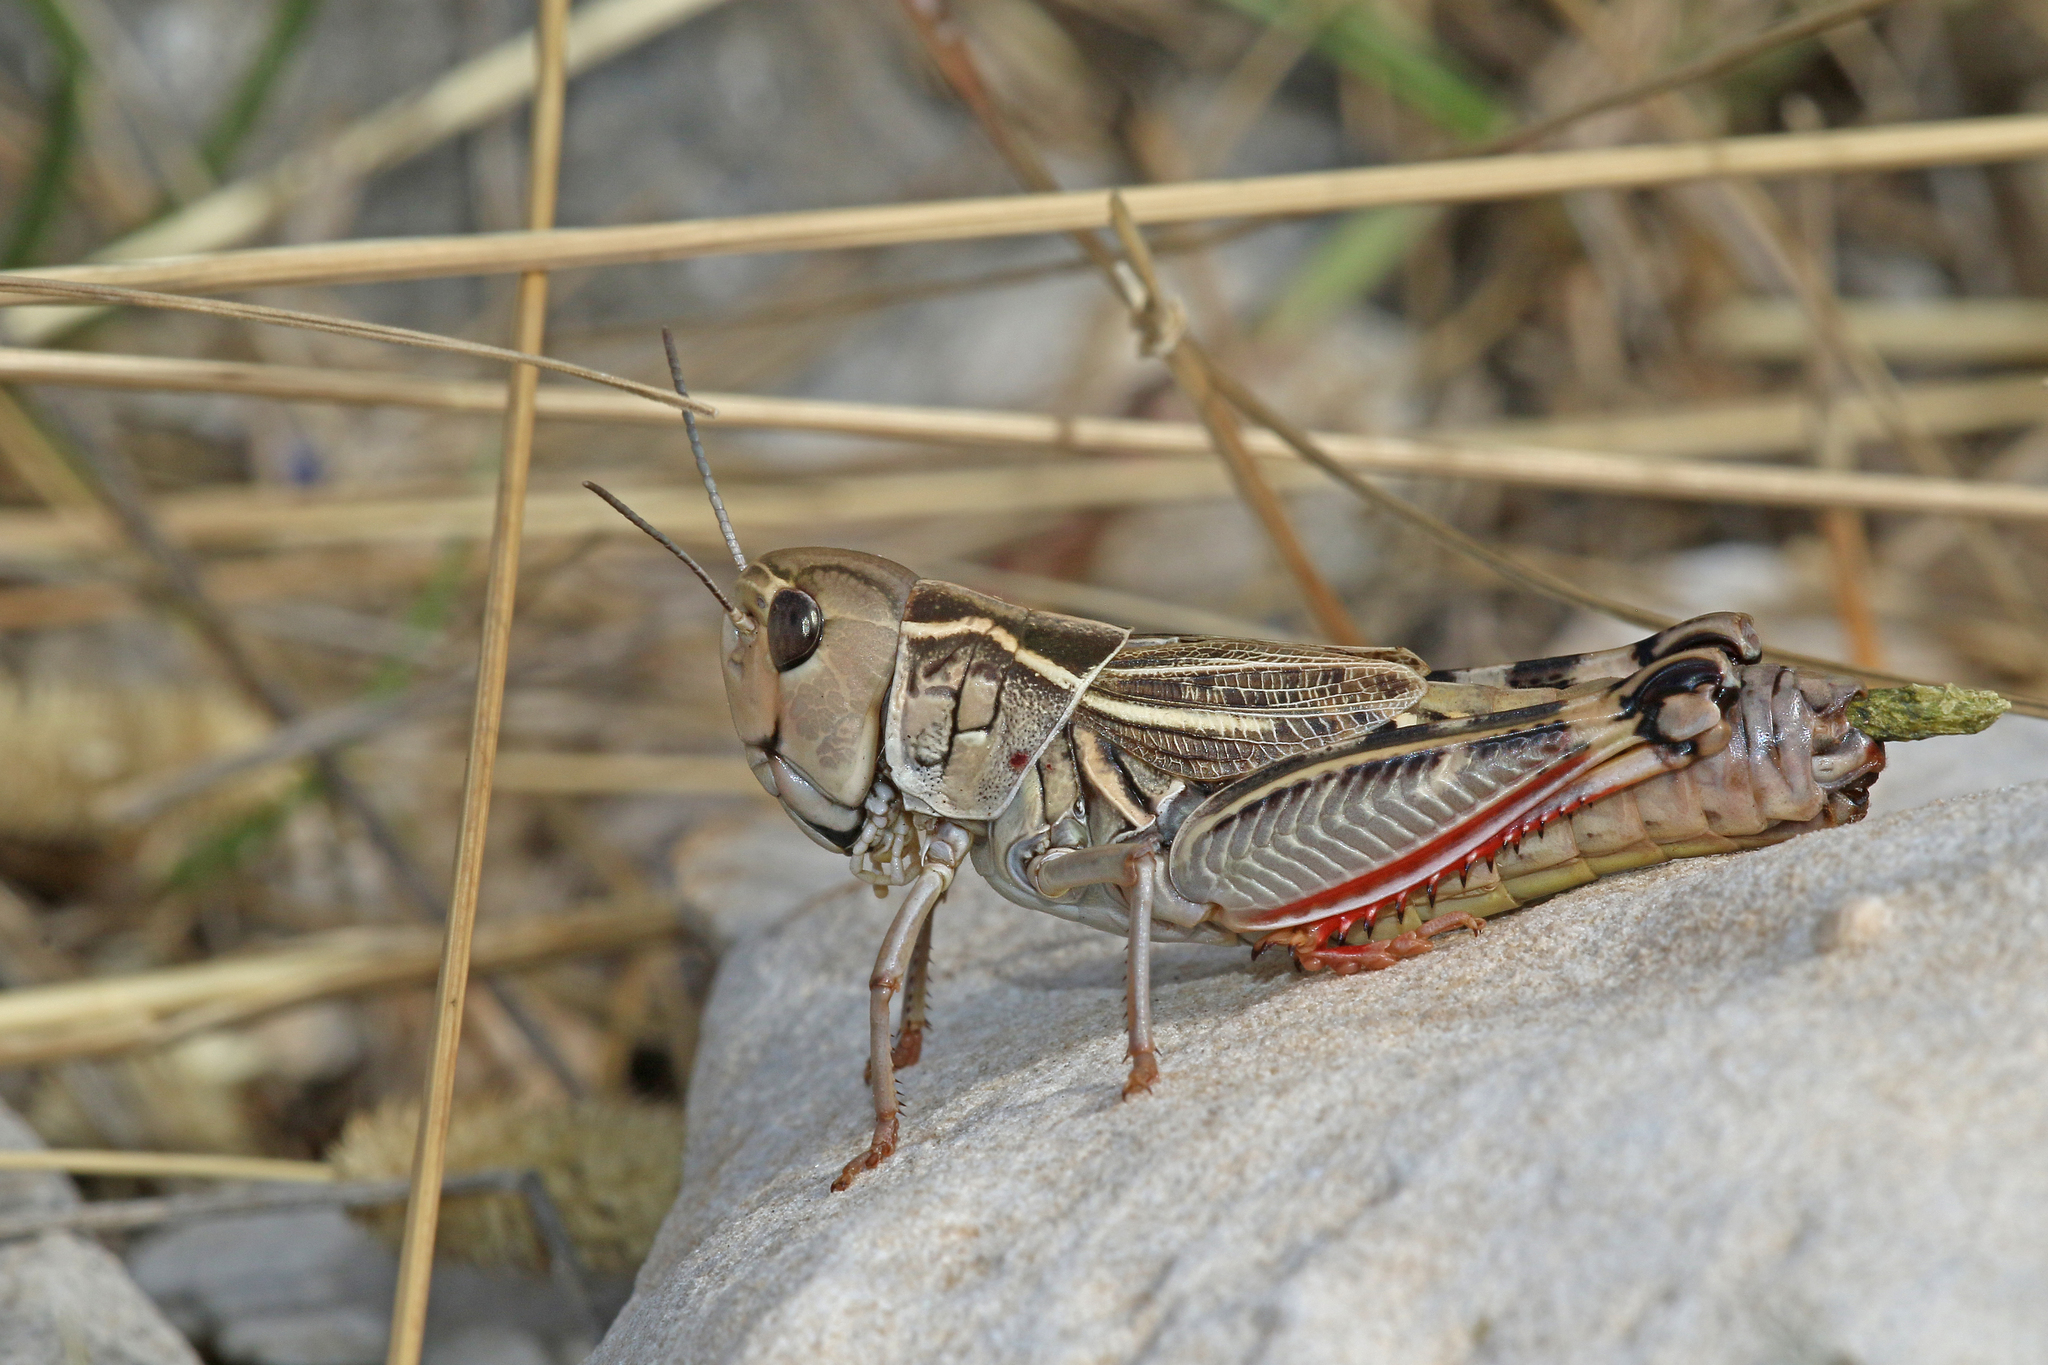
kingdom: Animalia
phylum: Arthropoda
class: Insecta
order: Orthoptera
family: Acrididae
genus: Arcyptera
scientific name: Arcyptera kheili
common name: Provence banded grasshopper
